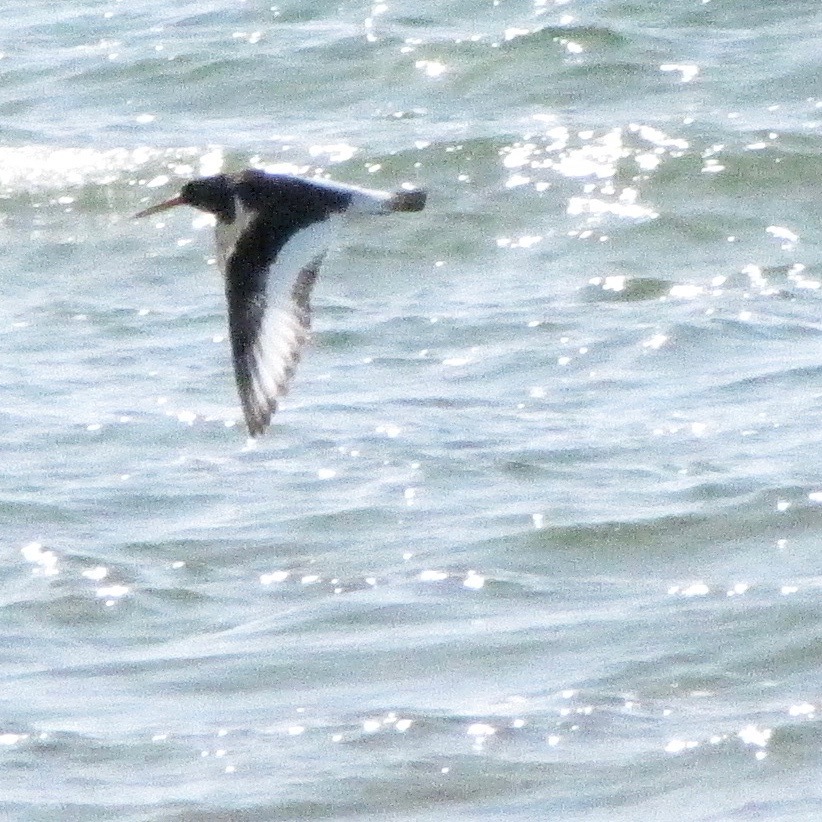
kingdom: Animalia
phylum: Chordata
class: Aves
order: Charadriiformes
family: Haematopodidae
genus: Haematopus
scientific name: Haematopus ostralegus
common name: Eurasian oystercatcher
